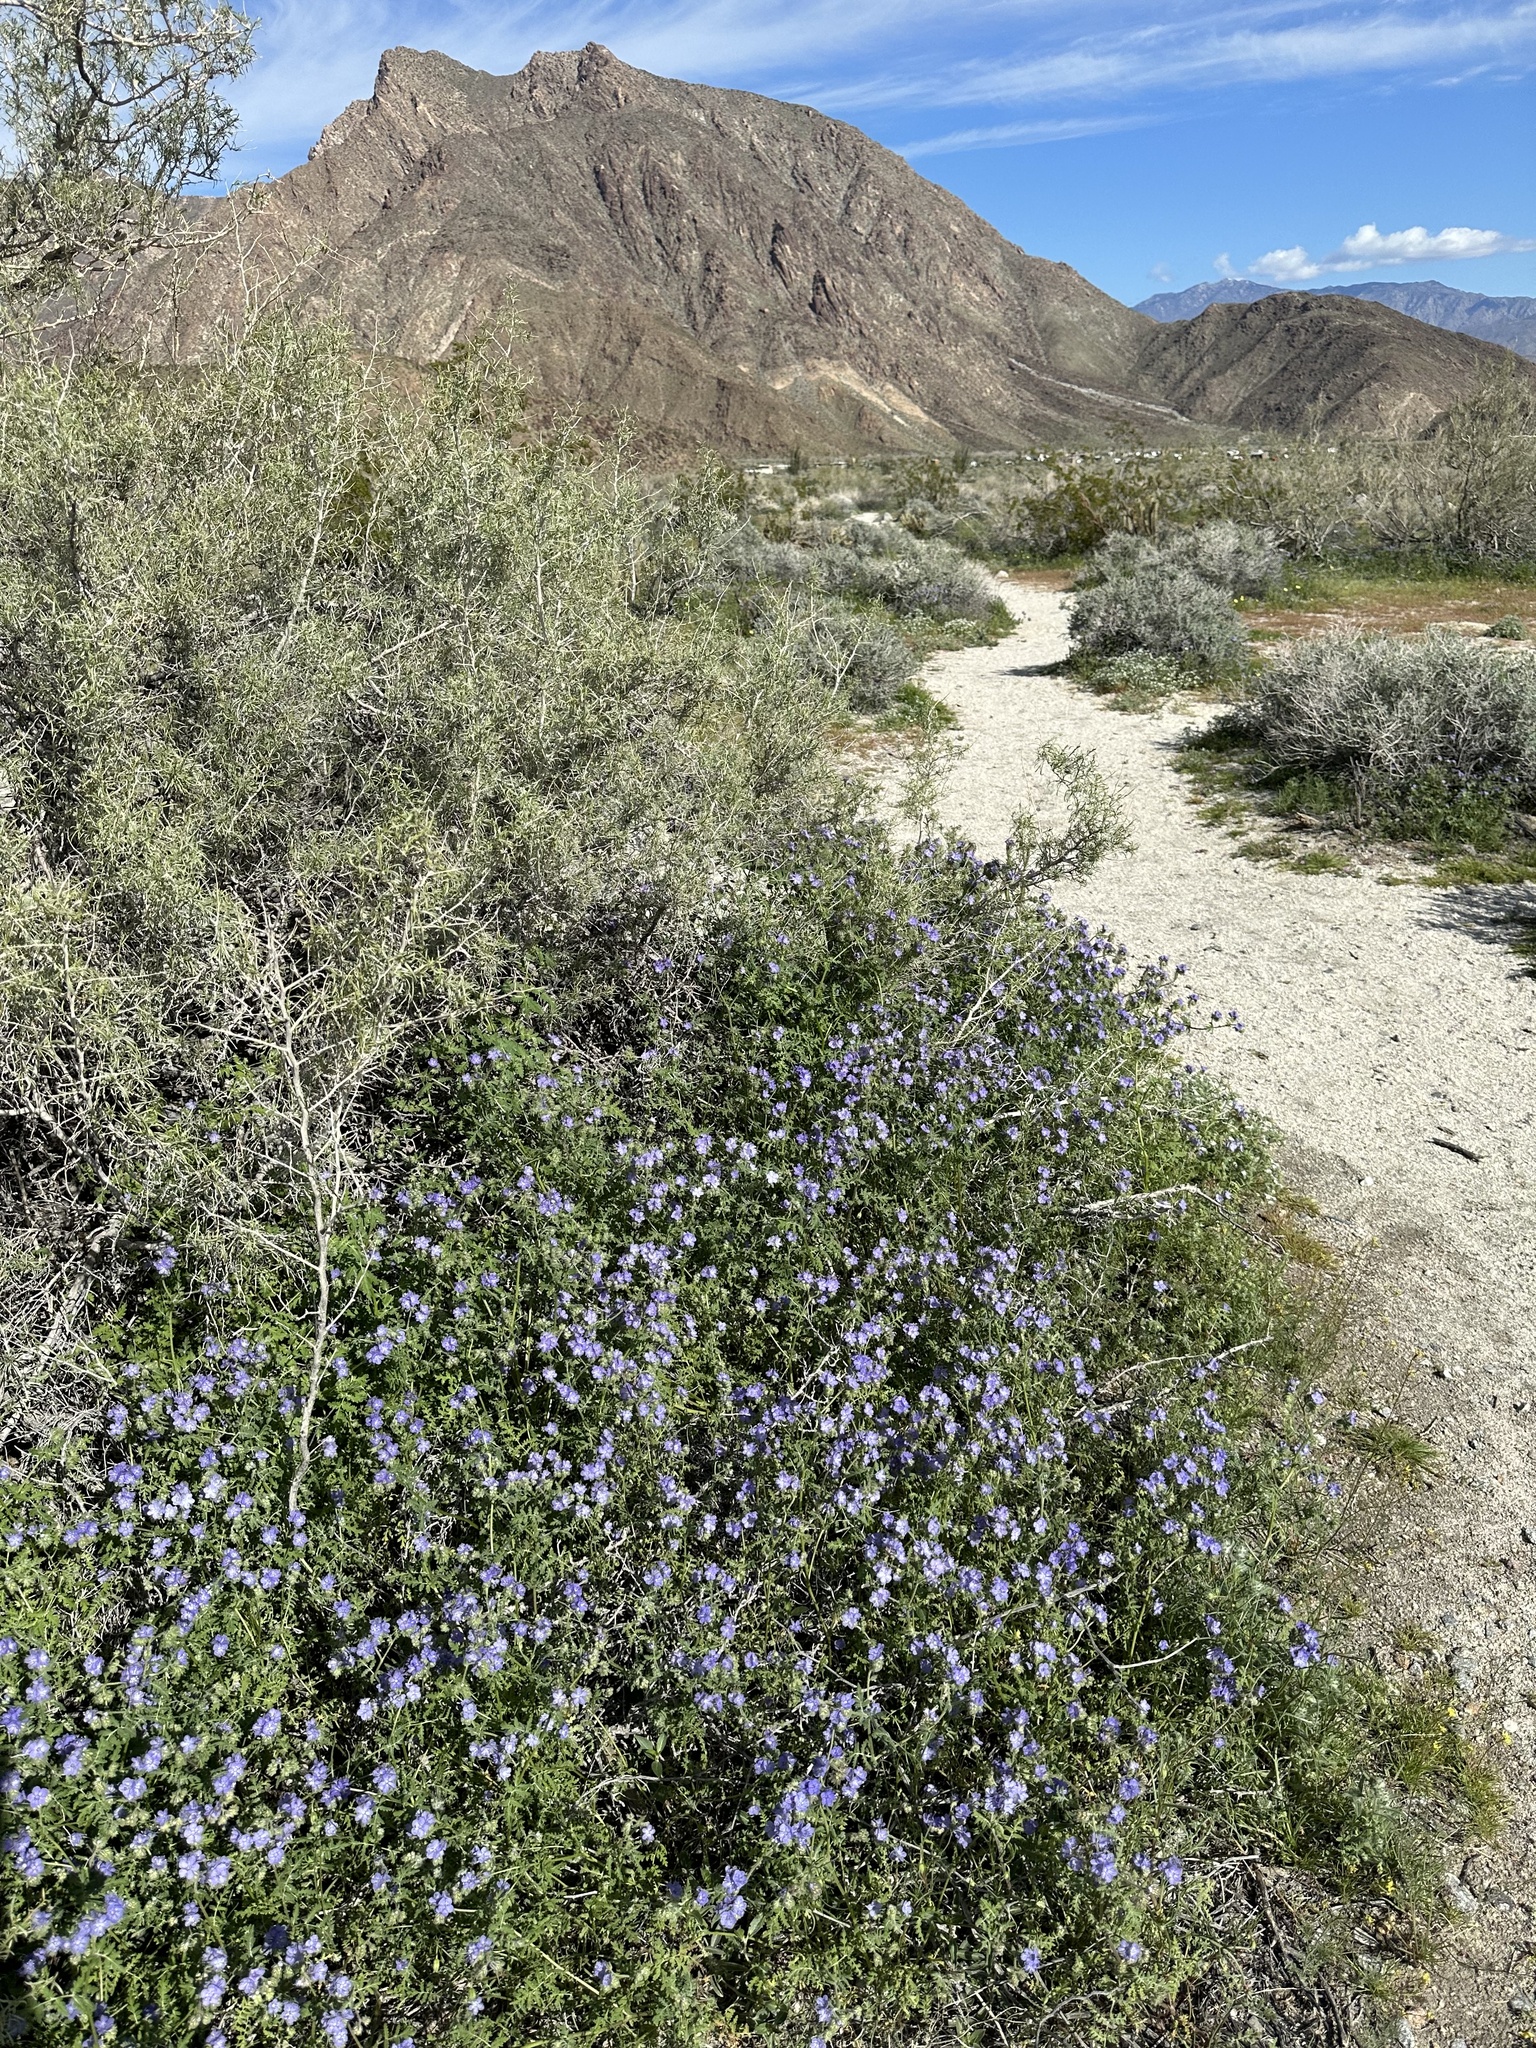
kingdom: Plantae
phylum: Tracheophyta
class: Magnoliopsida
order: Boraginales
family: Hydrophyllaceae
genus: Phacelia
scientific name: Phacelia distans
